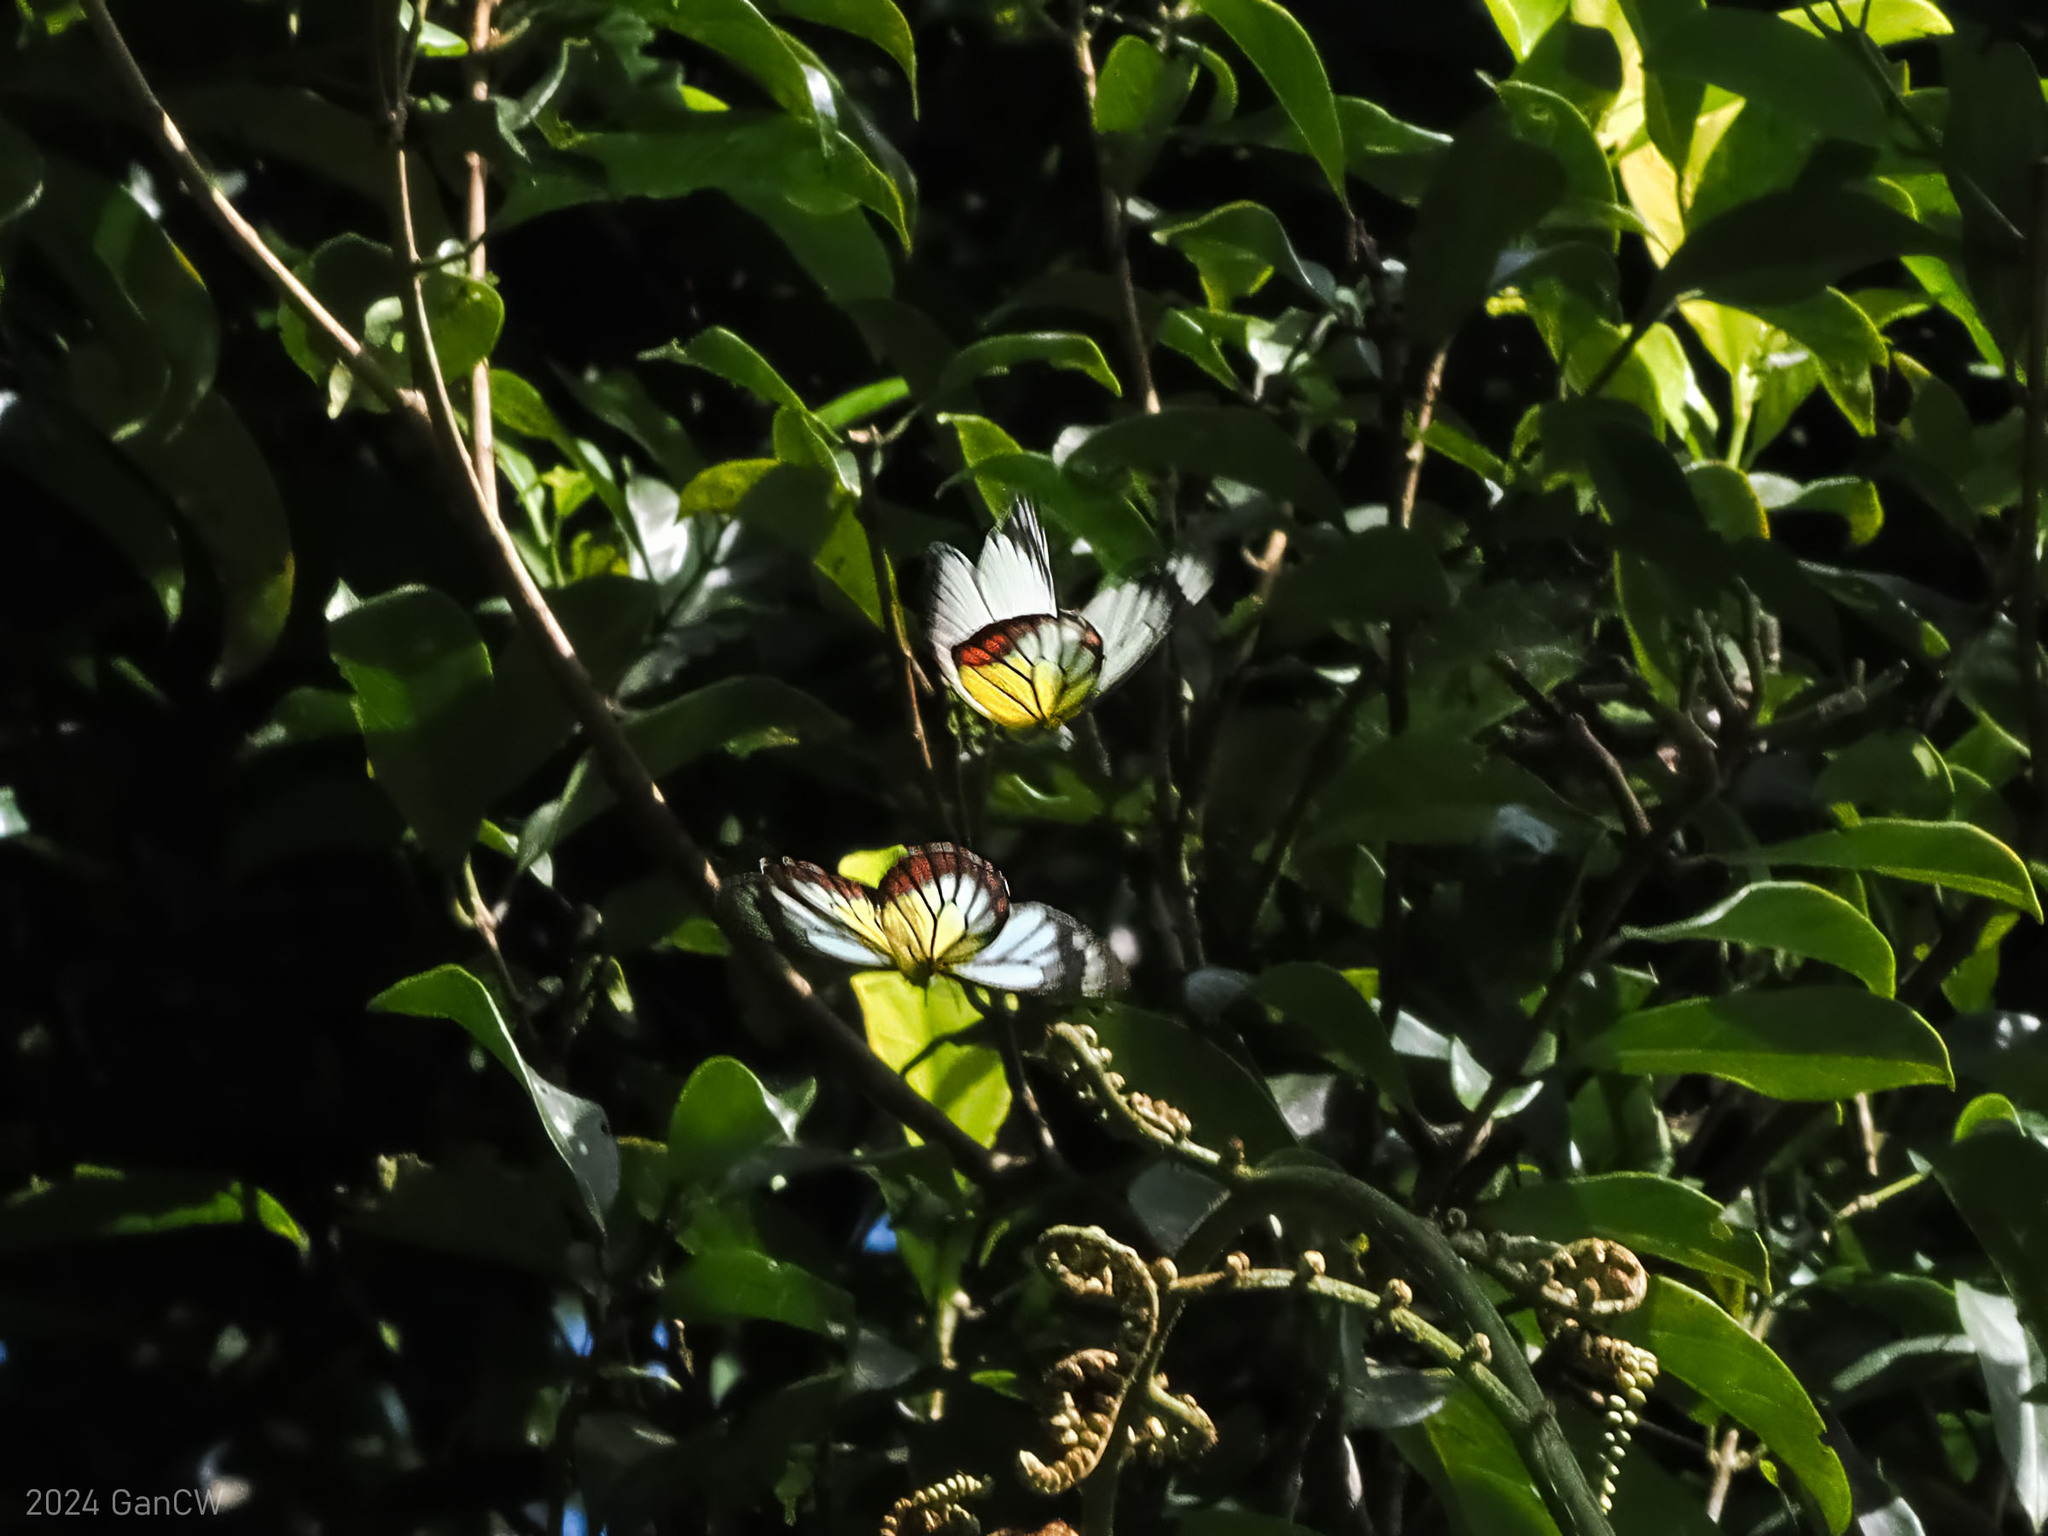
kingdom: Animalia
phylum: Arthropoda
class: Insecta
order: Lepidoptera
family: Pieridae
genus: Delias
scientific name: Delias hyparete
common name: Painted jezebel
